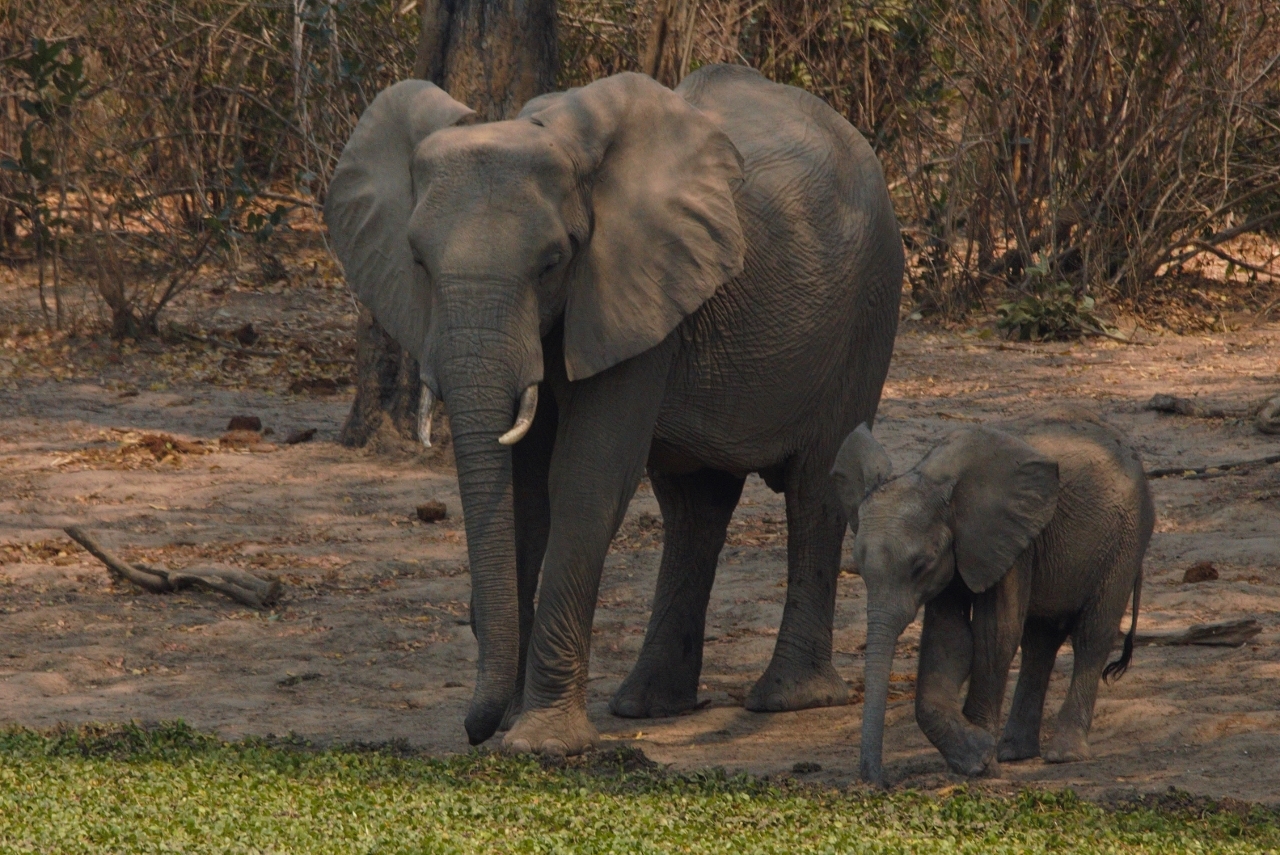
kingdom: Animalia
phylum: Chordata
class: Mammalia
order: Proboscidea
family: Elephantidae
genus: Loxodonta
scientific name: Loxodonta africana
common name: African elephant
